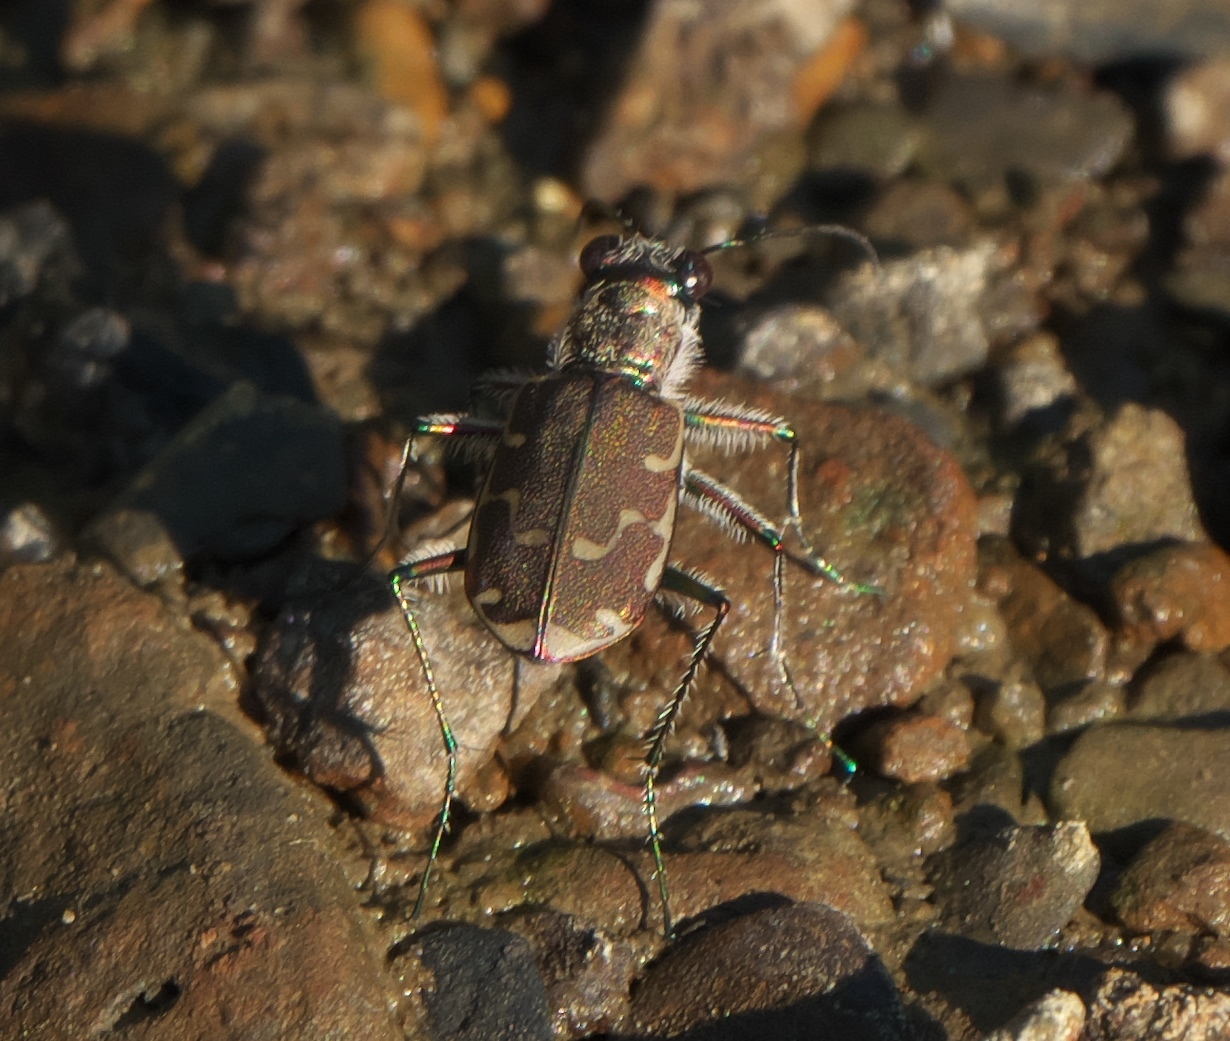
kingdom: Animalia
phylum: Arthropoda
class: Insecta
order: Coleoptera
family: Carabidae
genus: Cicindela
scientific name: Cicindela repanda
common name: Bronzed tiger beetle
